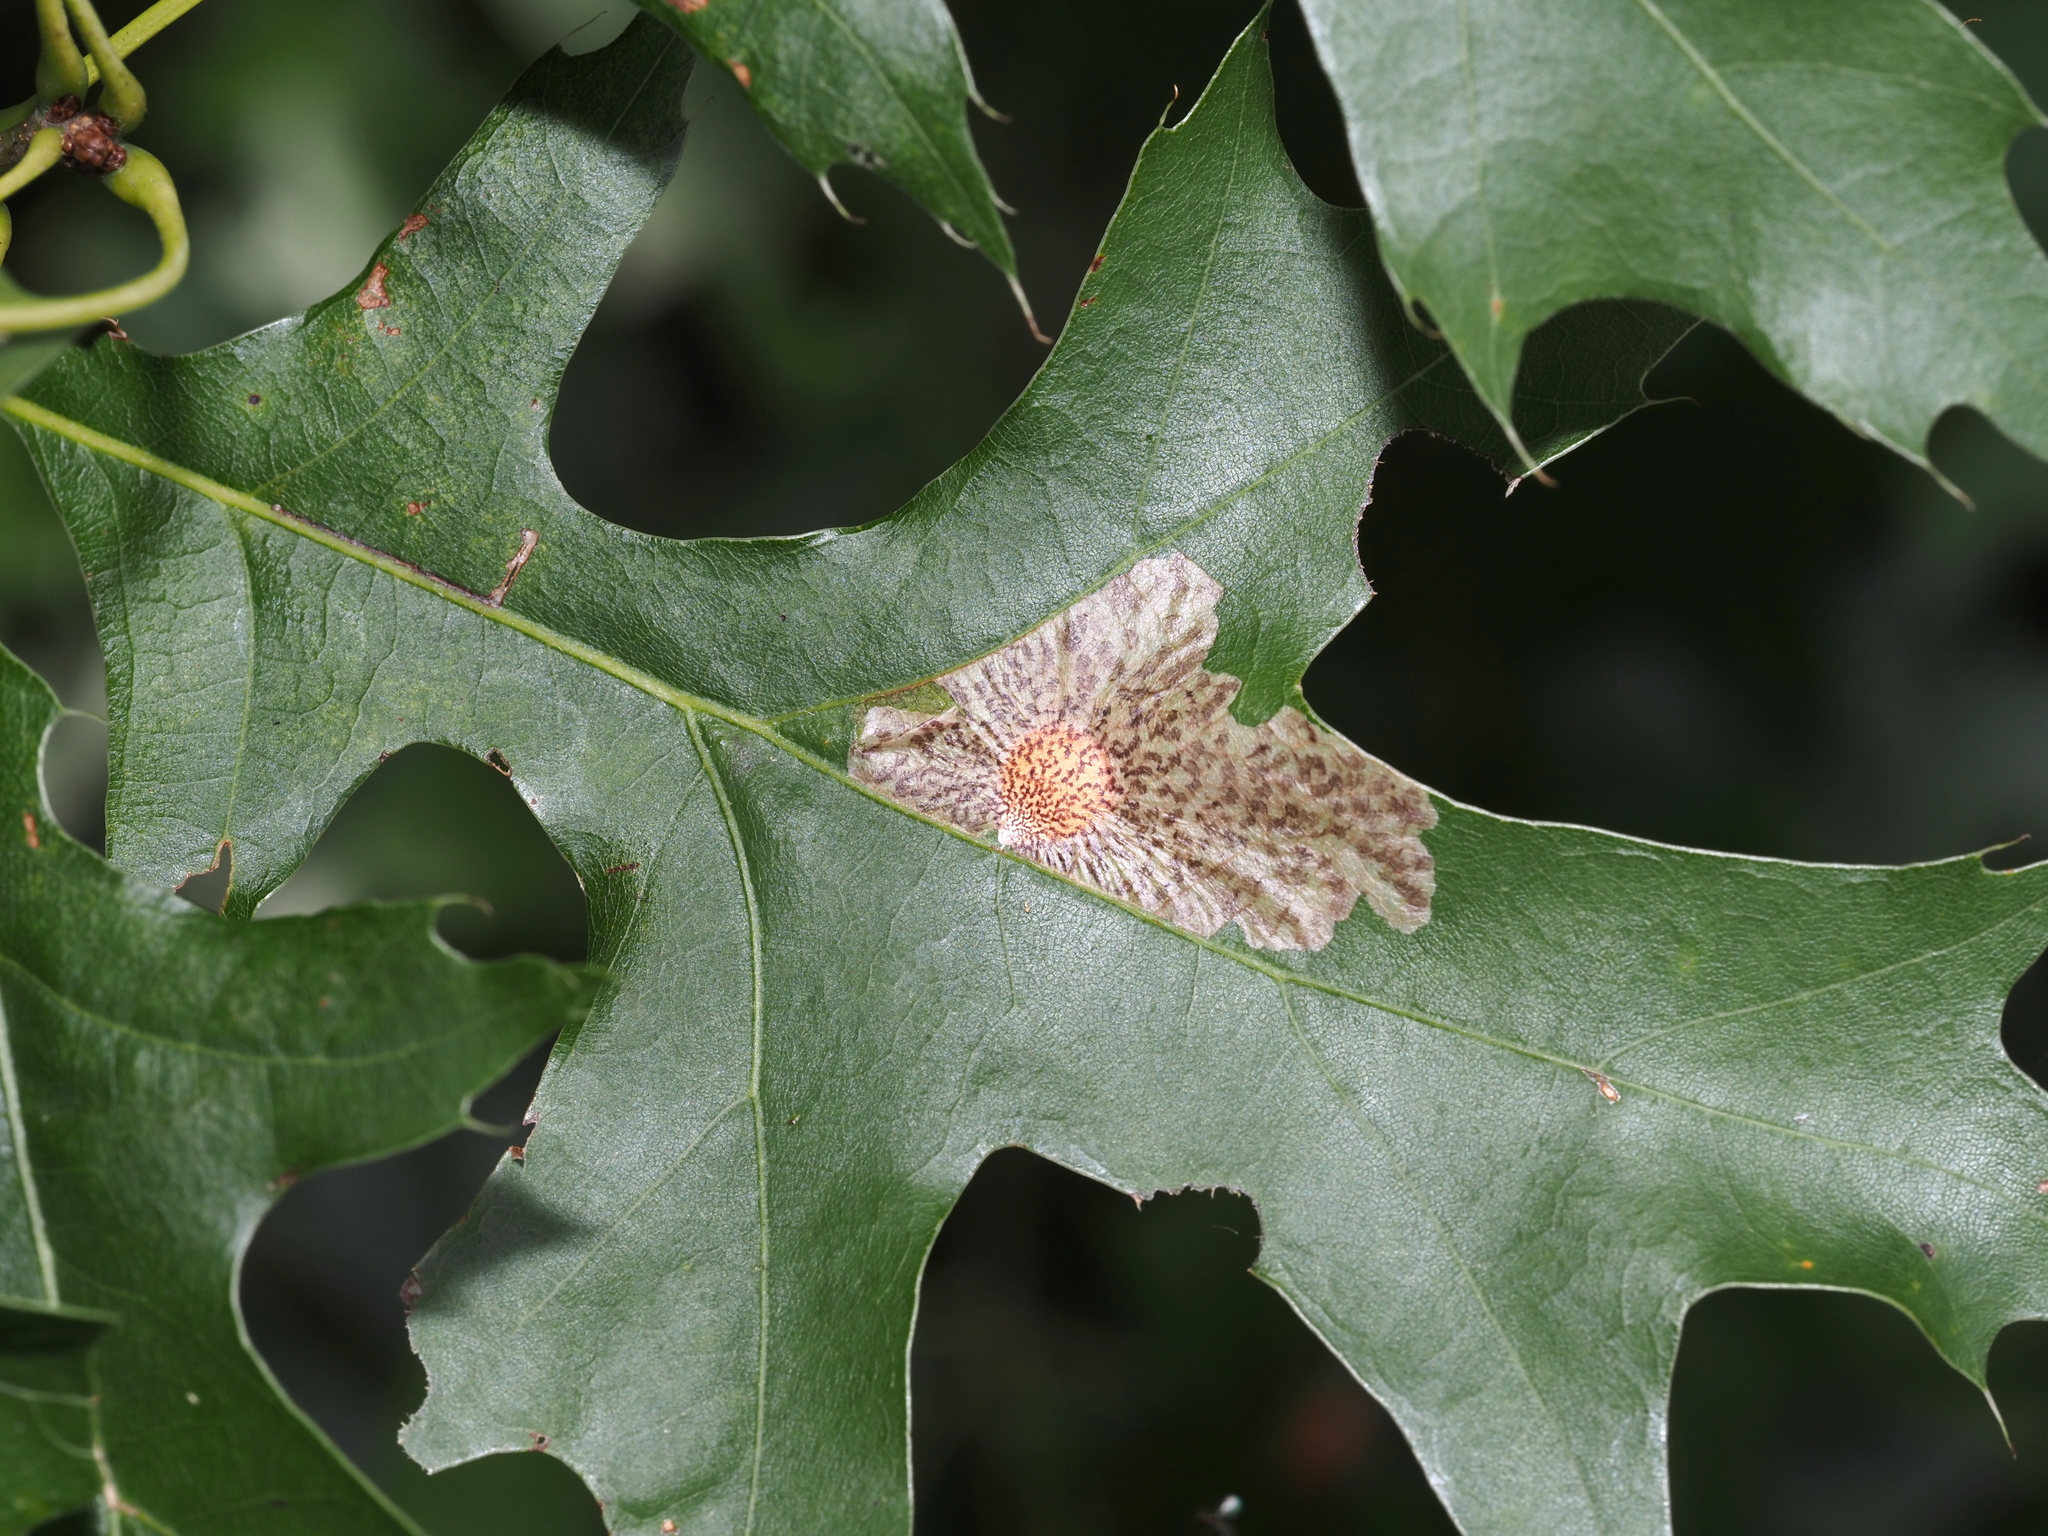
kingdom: Animalia
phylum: Arthropoda
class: Insecta
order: Lepidoptera
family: Tischeriidae
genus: Tischeria
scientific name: Tischeria quercitella
